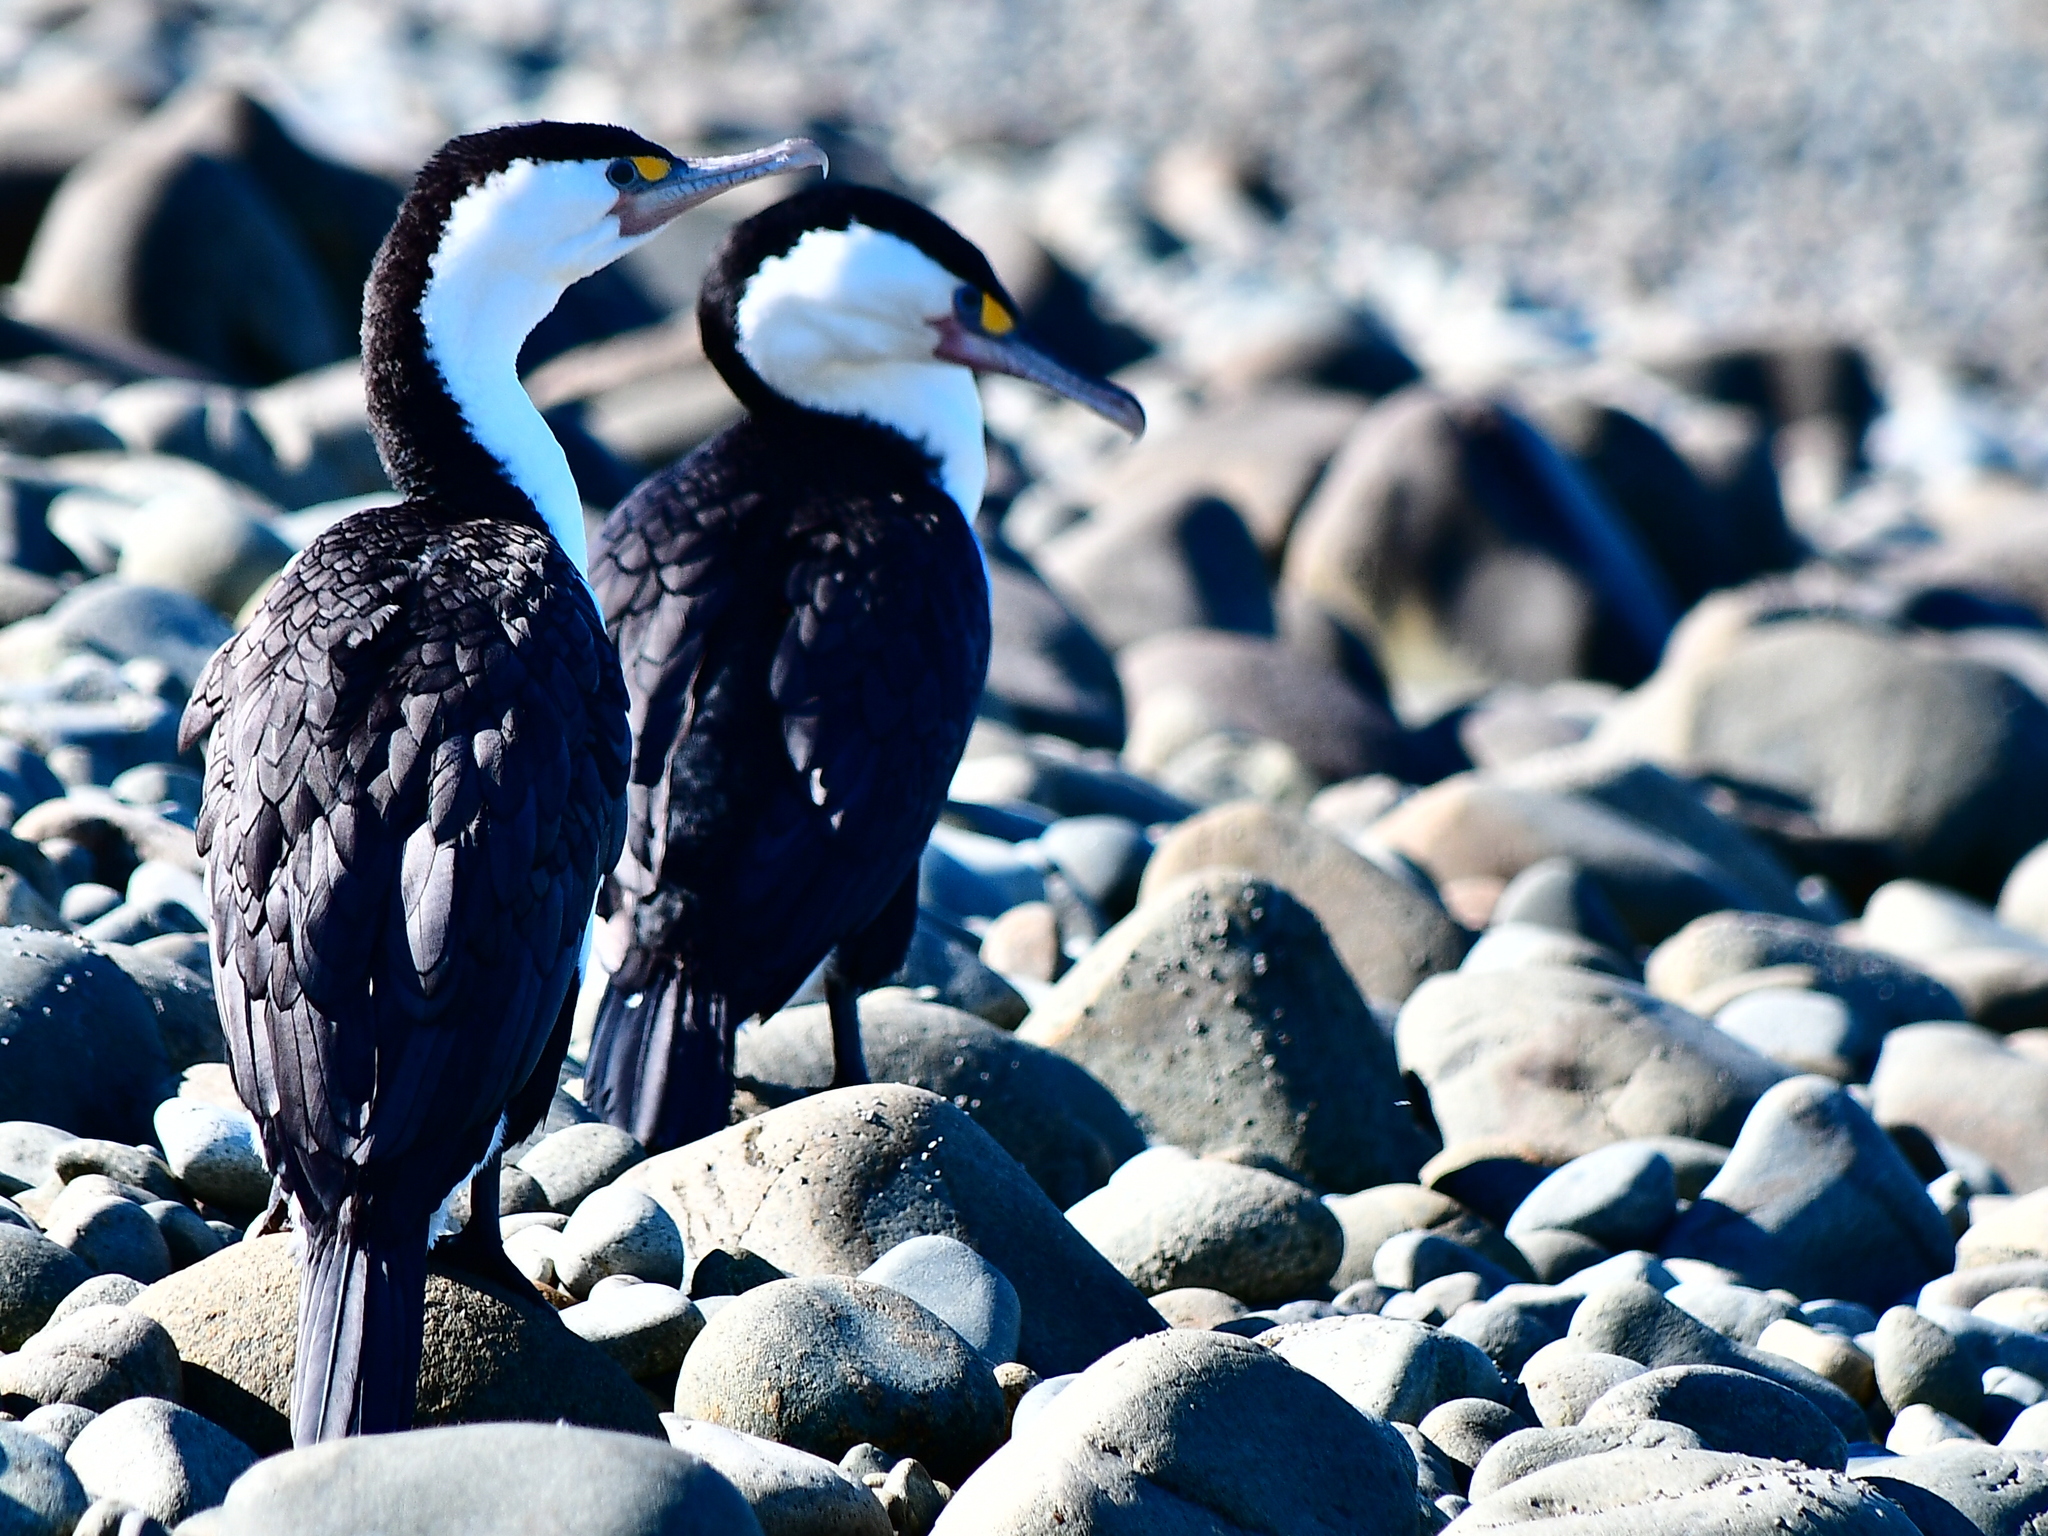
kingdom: Animalia
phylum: Chordata
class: Aves
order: Suliformes
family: Phalacrocoracidae
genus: Phalacrocorax
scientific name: Phalacrocorax varius
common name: Pied cormorant
